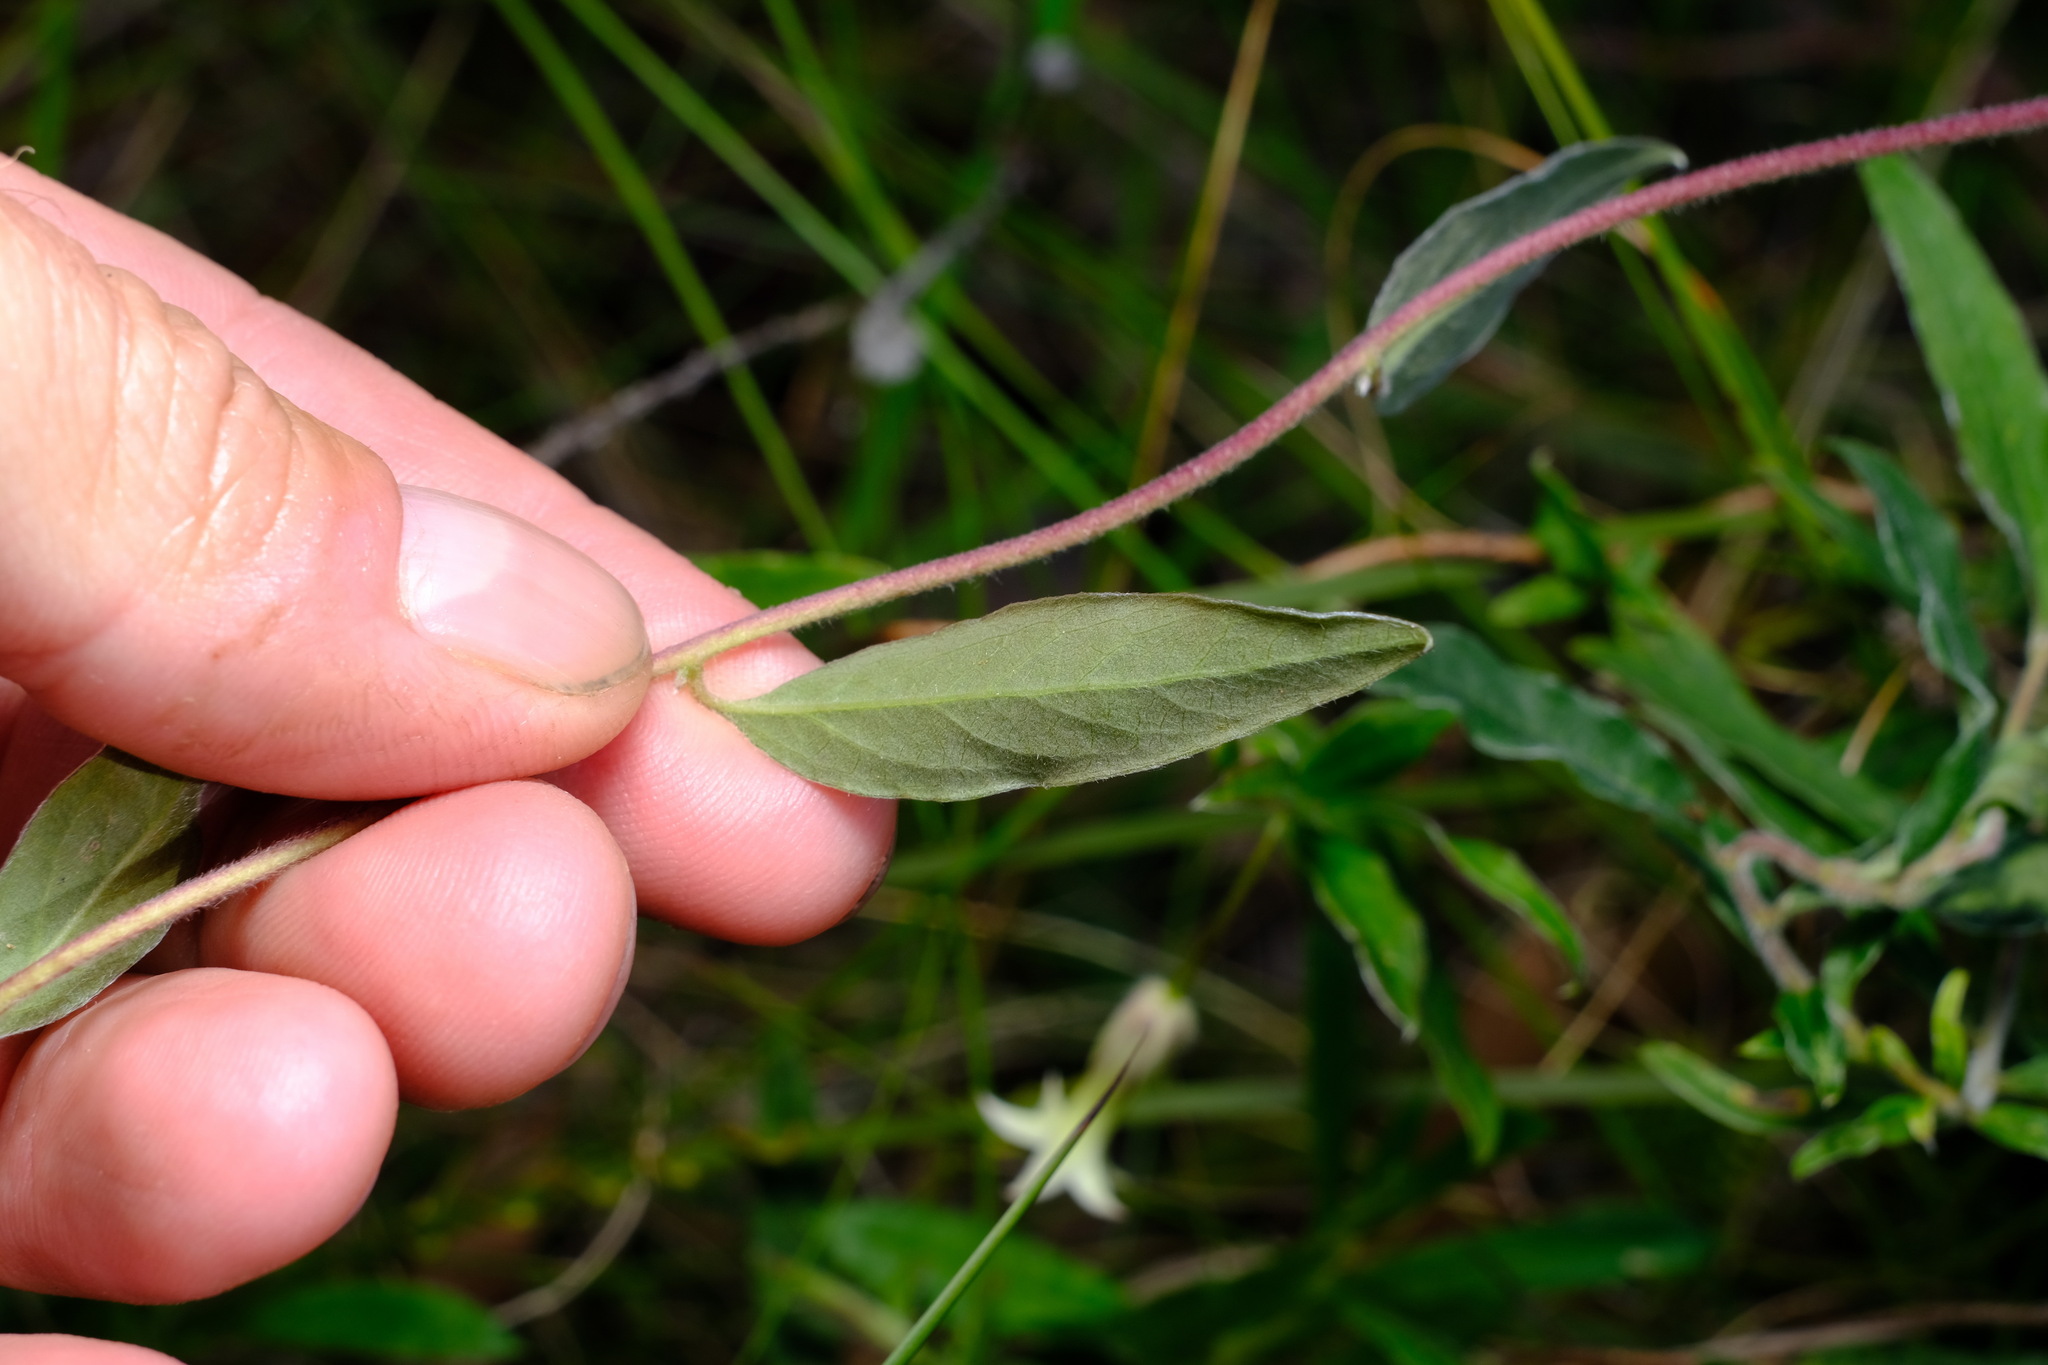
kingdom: Plantae
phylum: Tracheophyta
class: Magnoliopsida
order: Apiales
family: Pittosporaceae
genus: Billardiera
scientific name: Billardiera mutabilis
